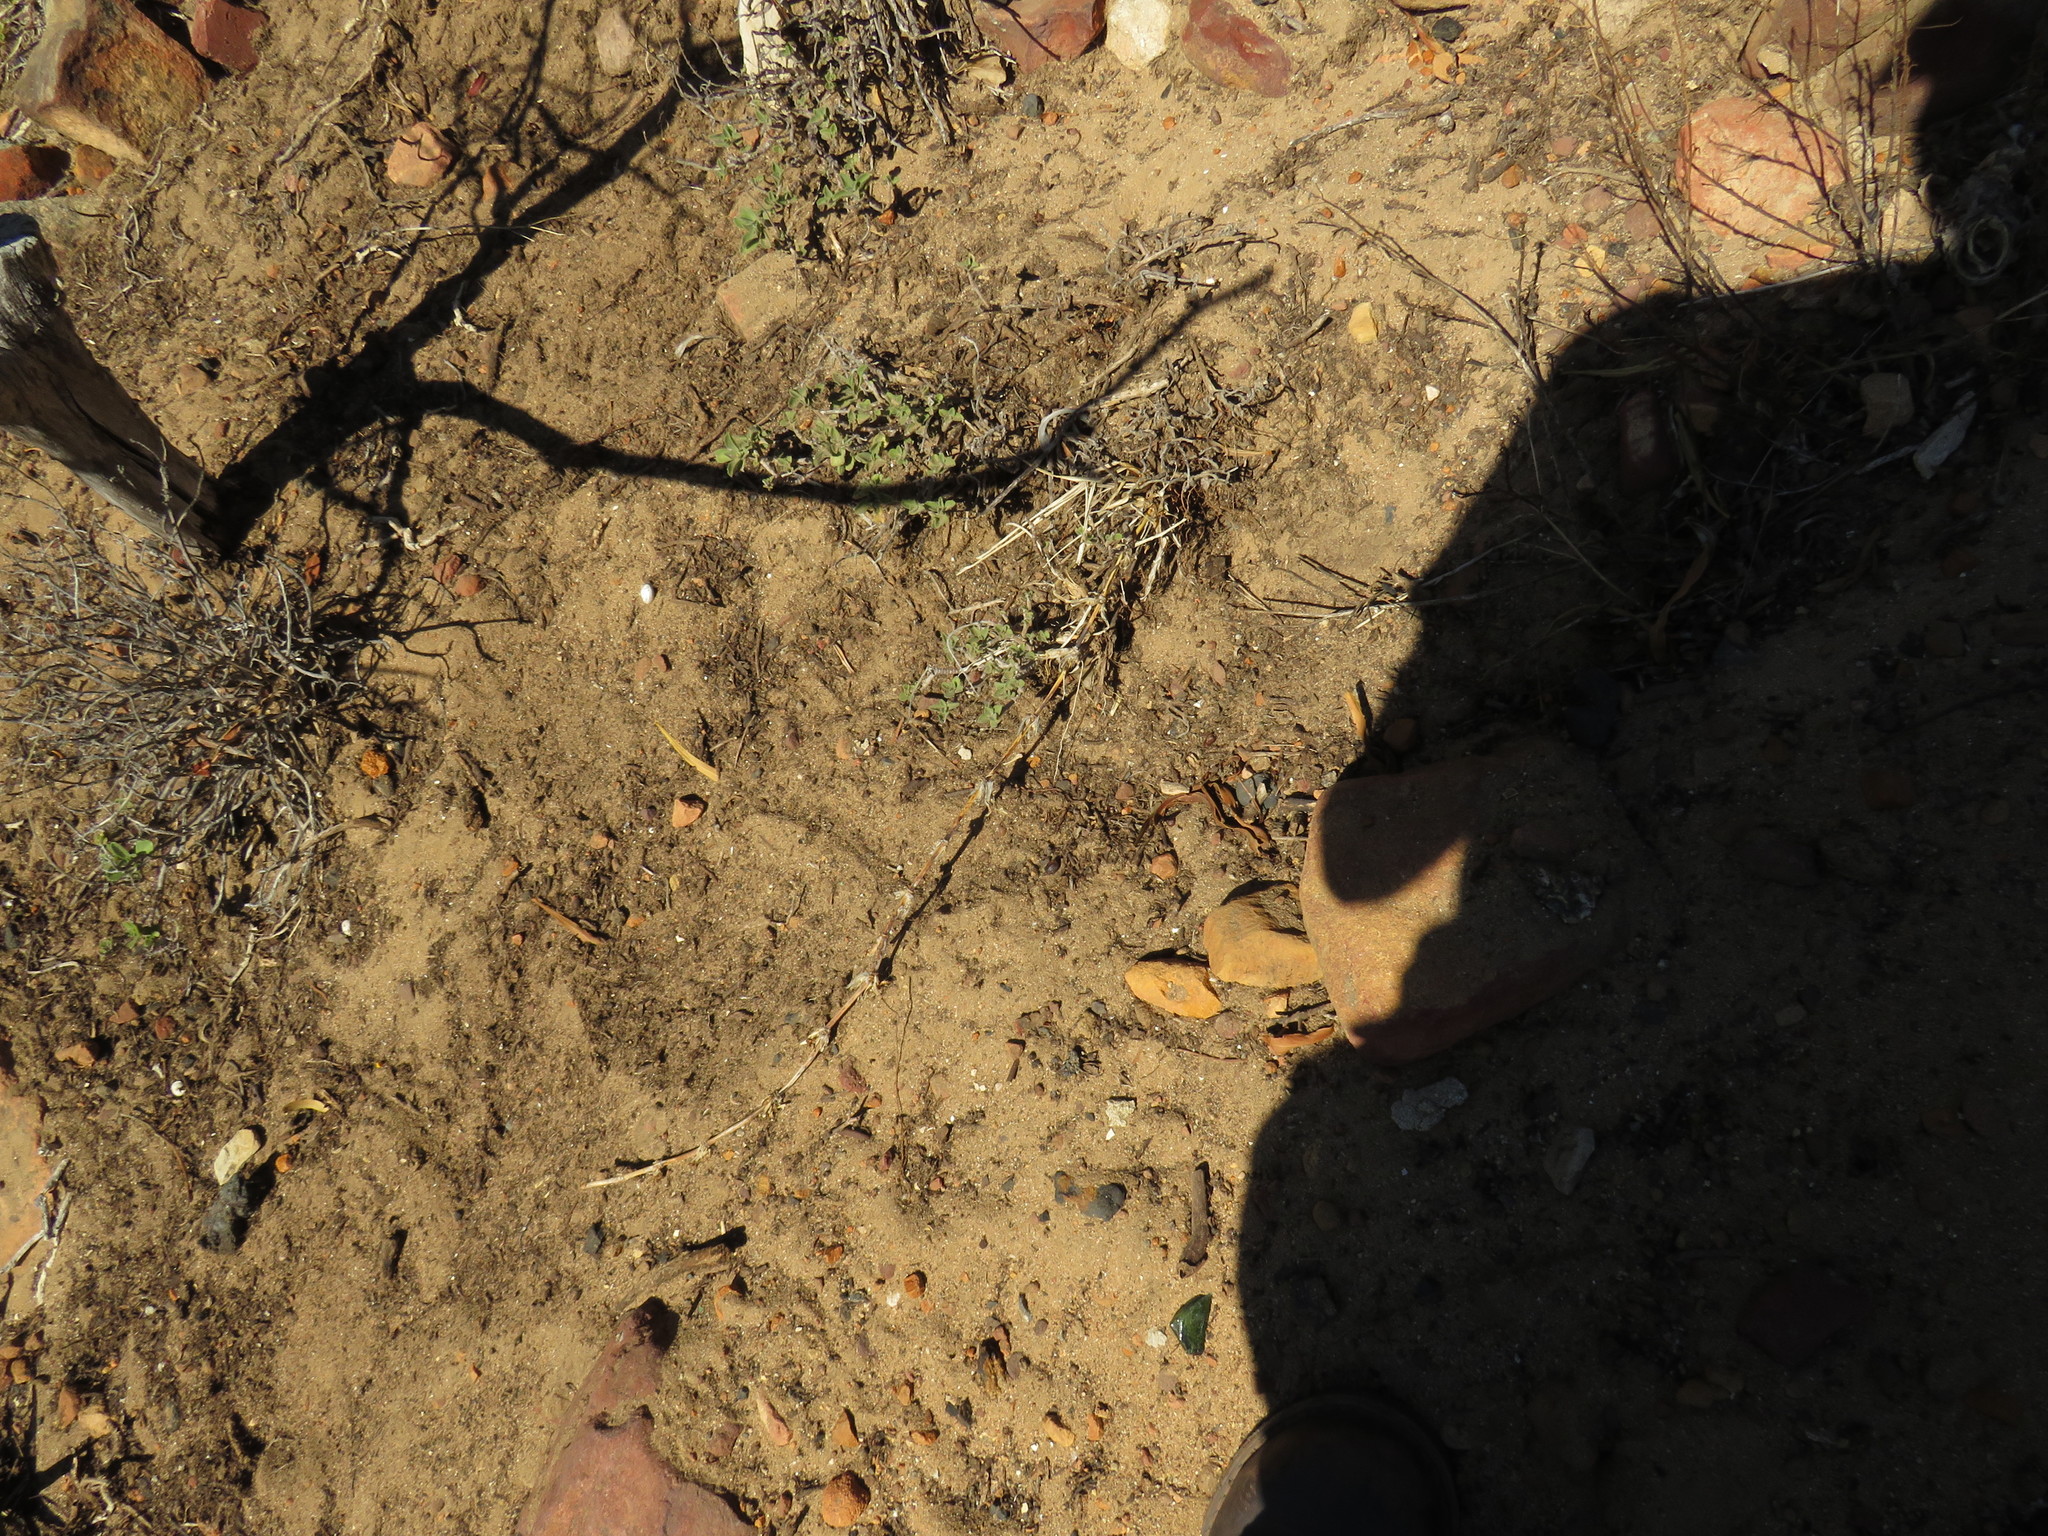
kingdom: Plantae
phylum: Tracheophyta
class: Liliopsida
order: Poales
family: Poaceae
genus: Stenotaphrum
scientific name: Stenotaphrum secundatum
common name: St. augustine grass
